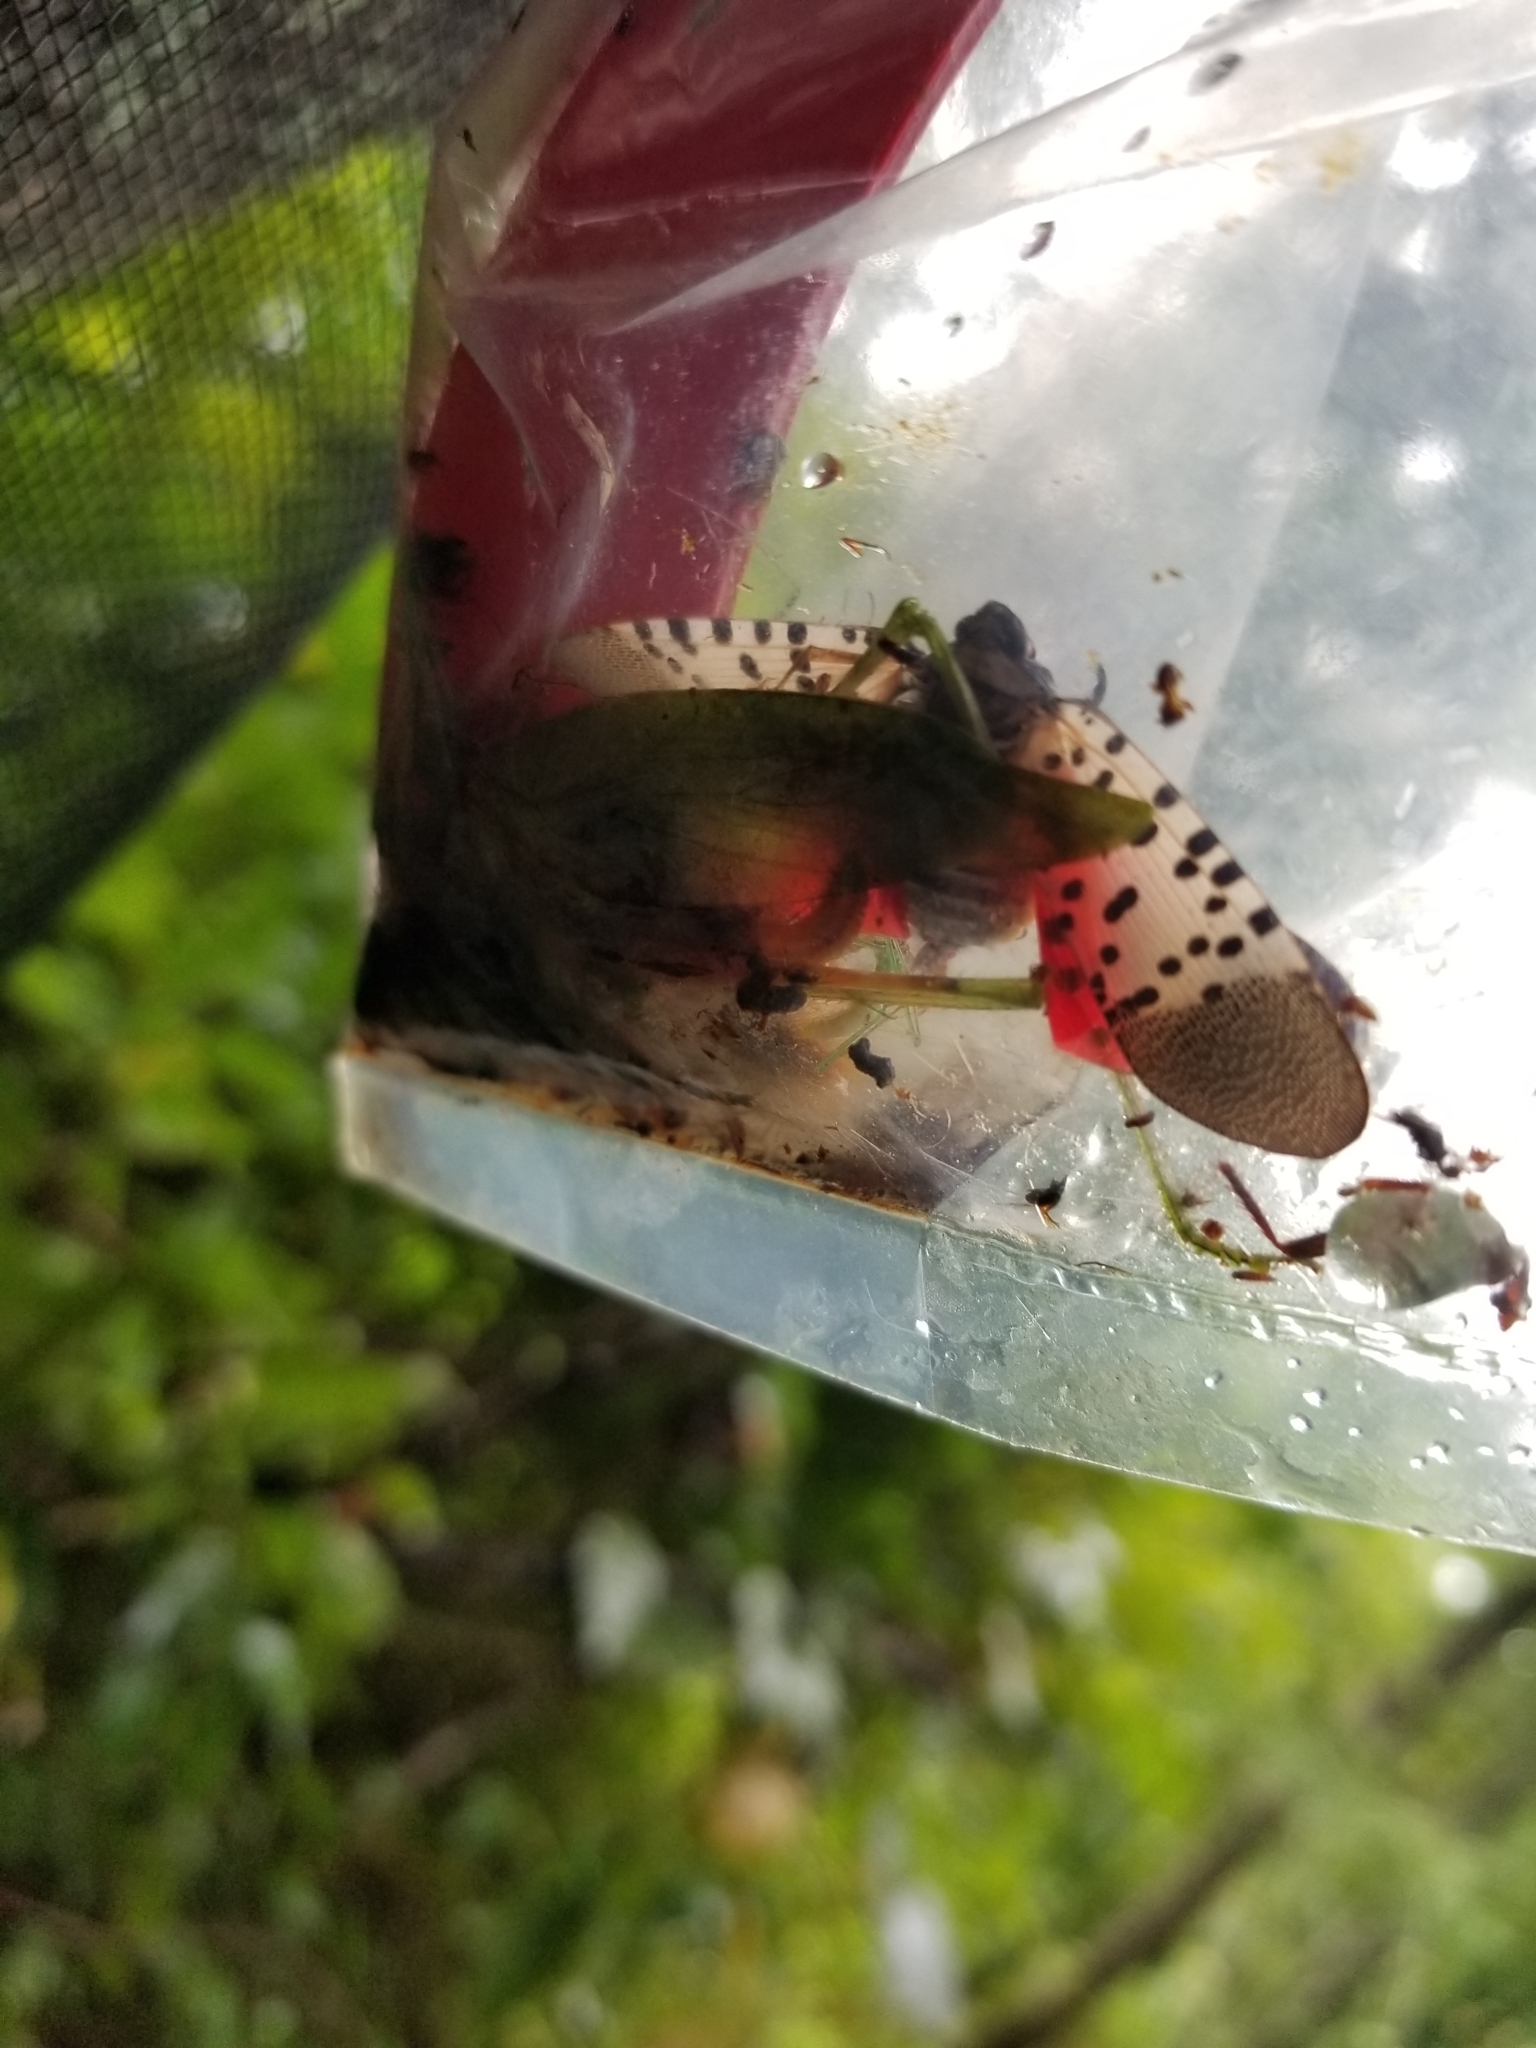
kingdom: Animalia
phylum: Arthropoda
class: Insecta
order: Hemiptera
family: Fulgoridae
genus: Lycorma
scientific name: Lycorma delicatula
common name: Spotted lanternfly
